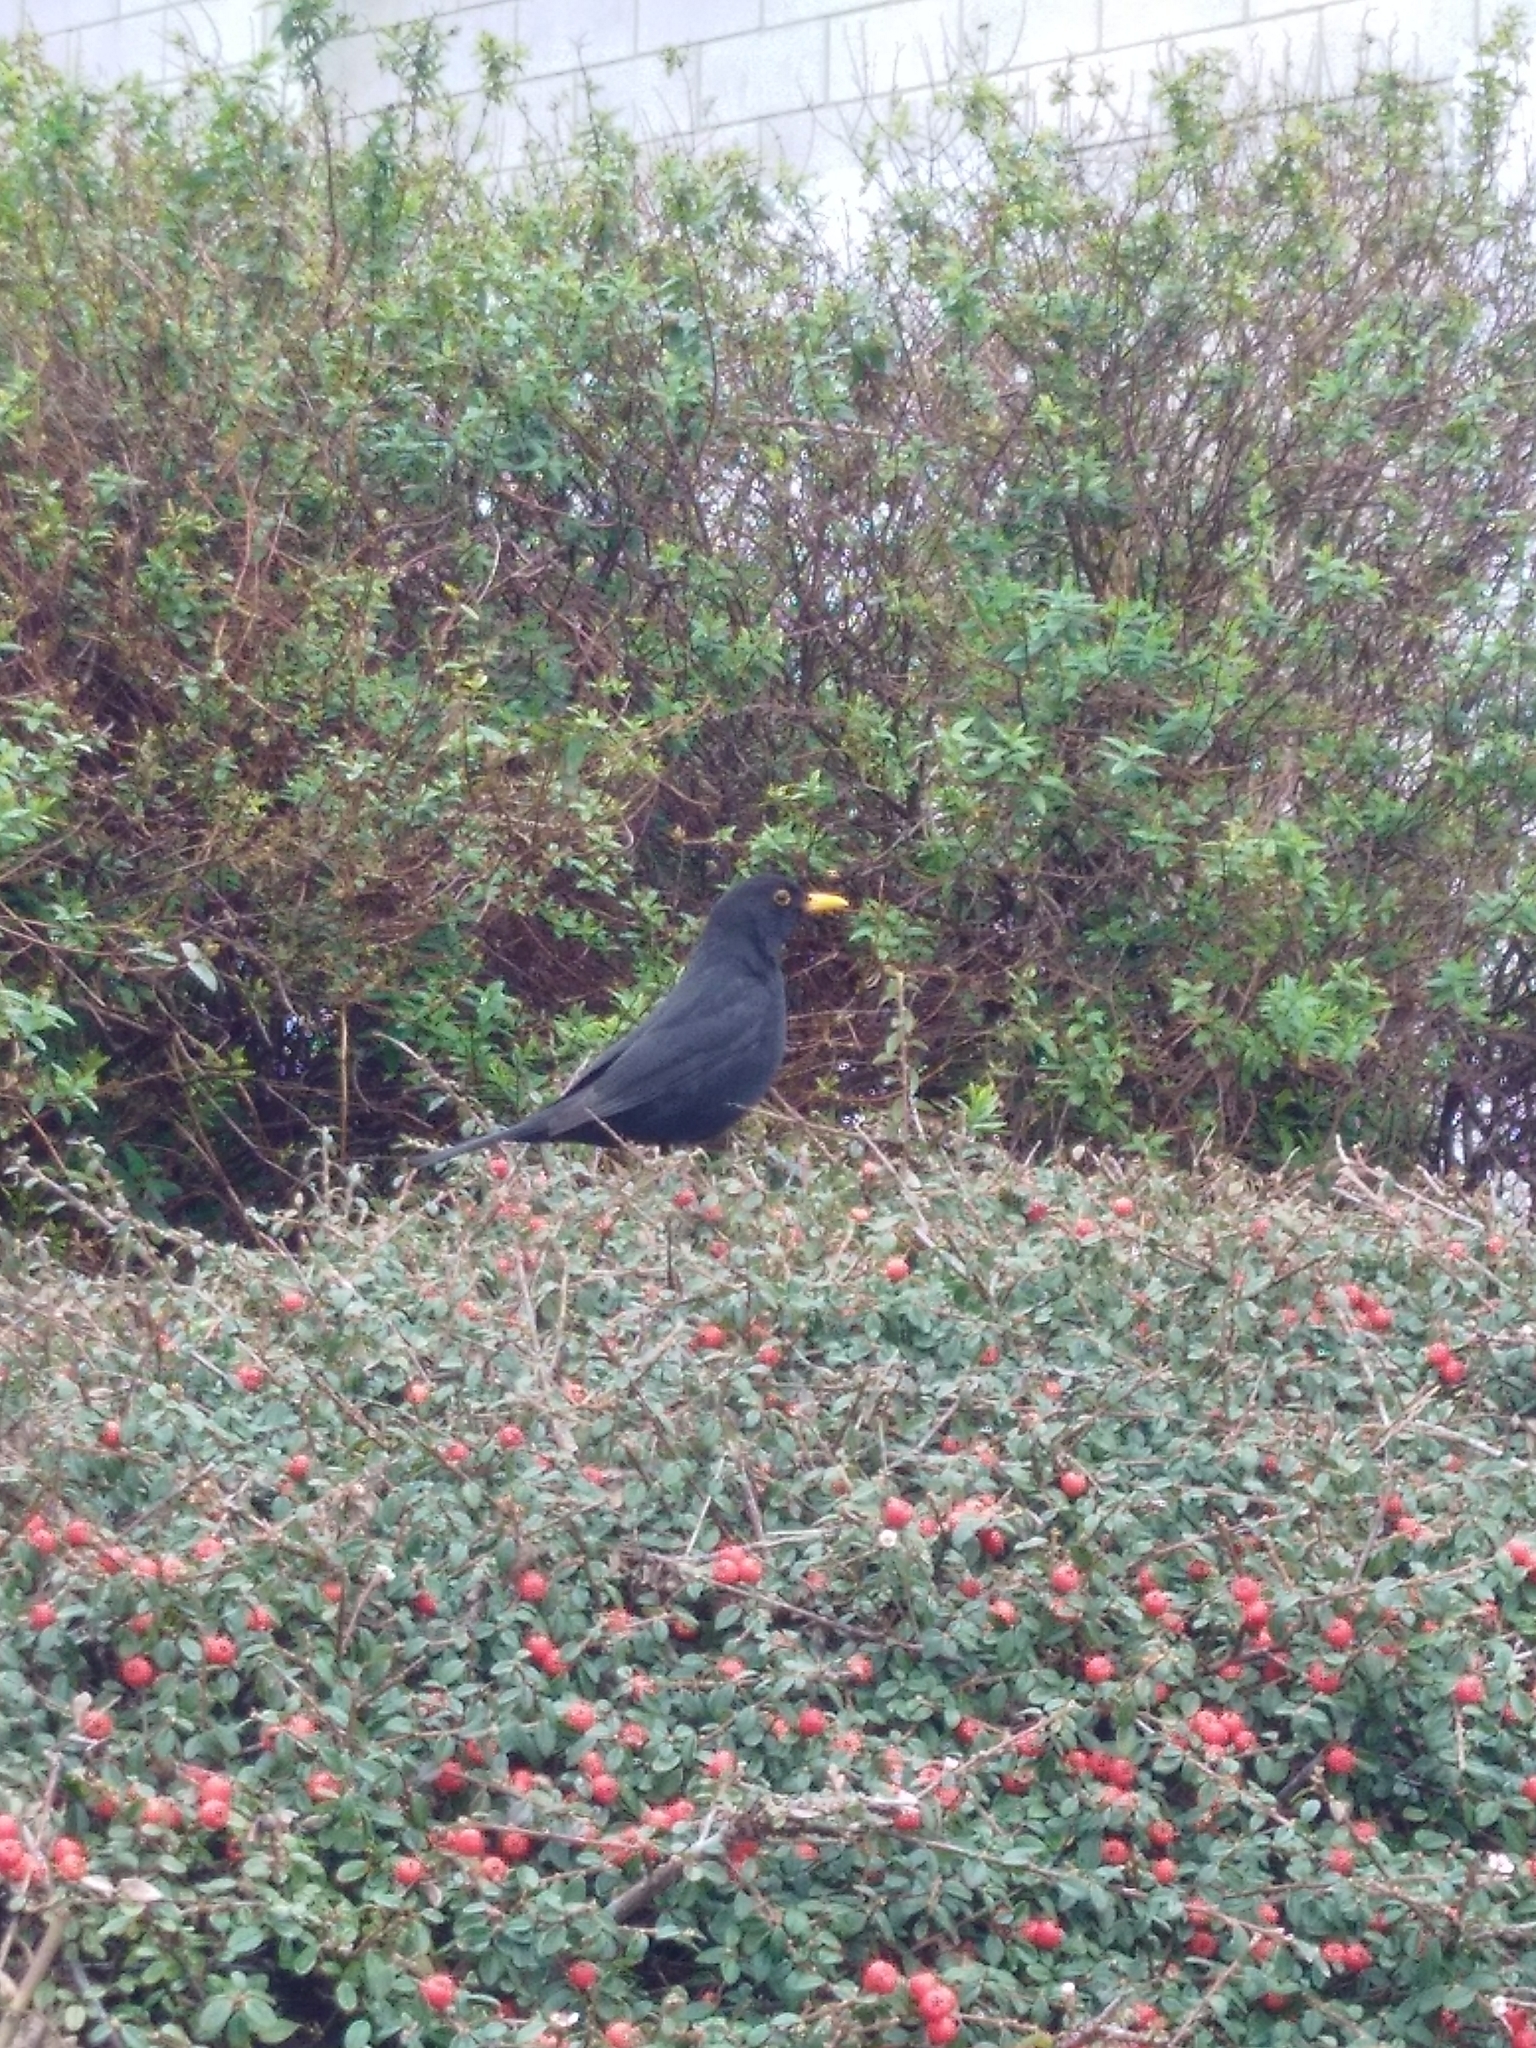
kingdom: Animalia
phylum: Chordata
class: Aves
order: Passeriformes
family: Turdidae
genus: Turdus
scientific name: Turdus merula
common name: Common blackbird
